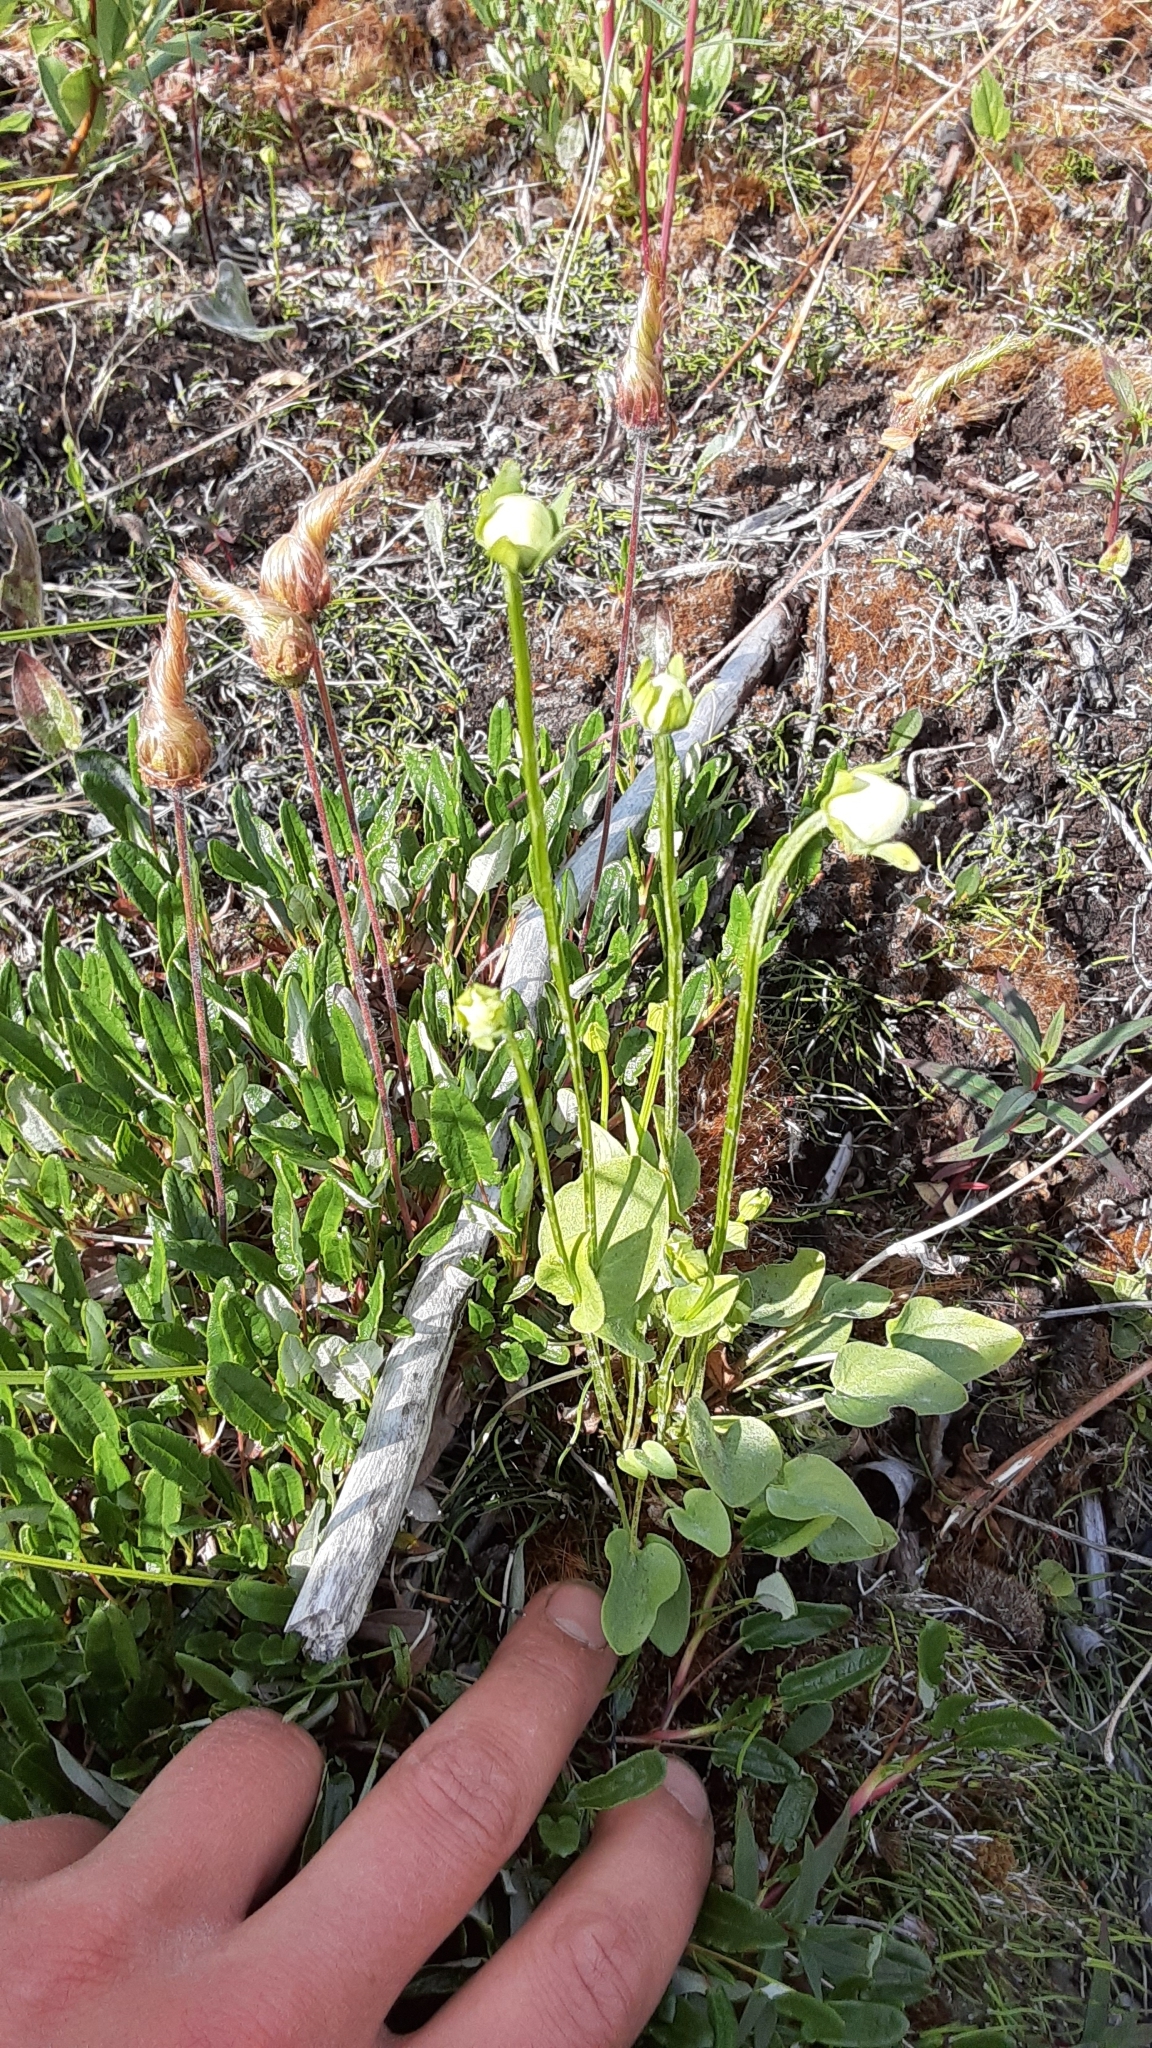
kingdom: Plantae
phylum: Tracheophyta
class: Magnoliopsida
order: Celastrales
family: Parnassiaceae
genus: Parnassia
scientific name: Parnassia palustris
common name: Grass-of-parnassus
